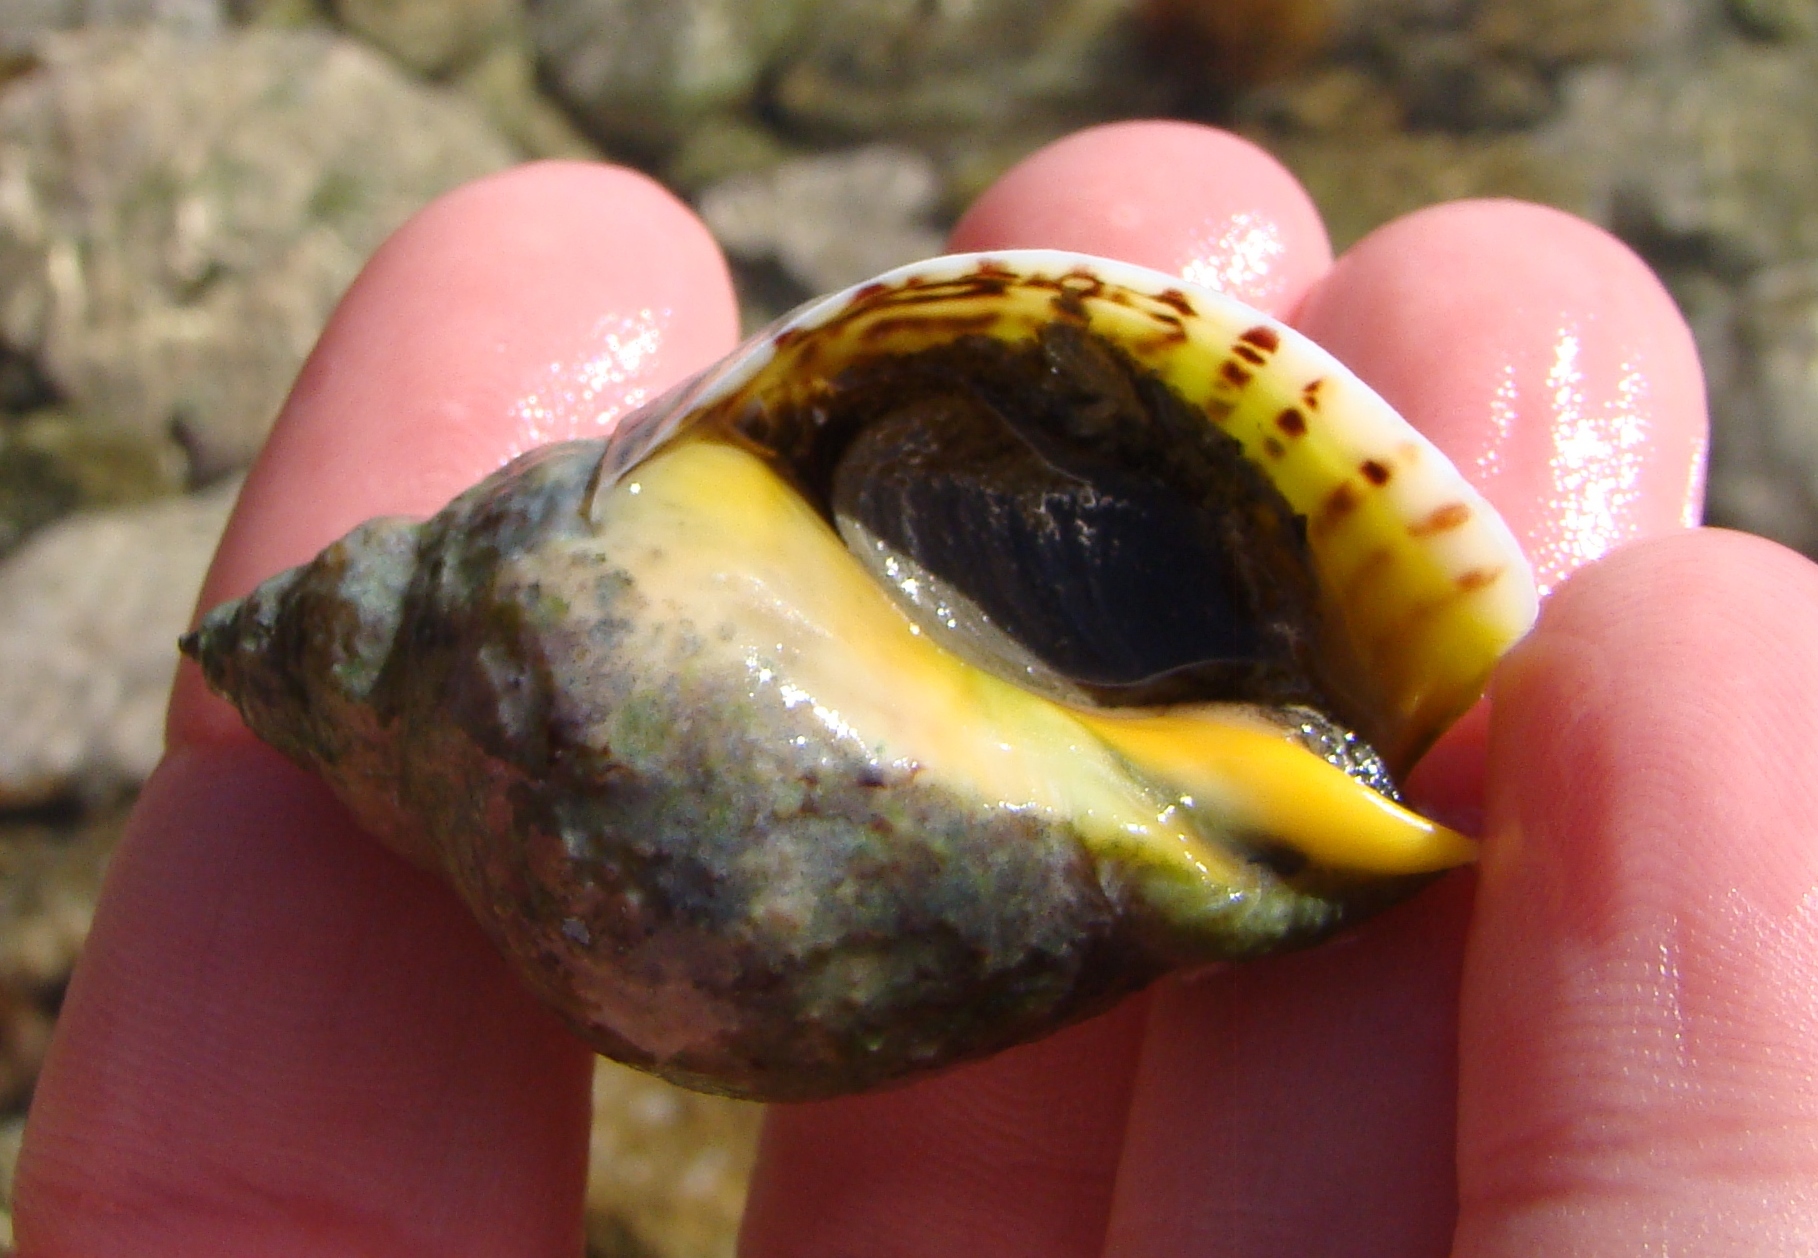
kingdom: Animalia
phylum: Mollusca
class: Gastropoda
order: Neogastropoda
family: Cominellidae
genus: Cominella
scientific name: Cominella adspersa
